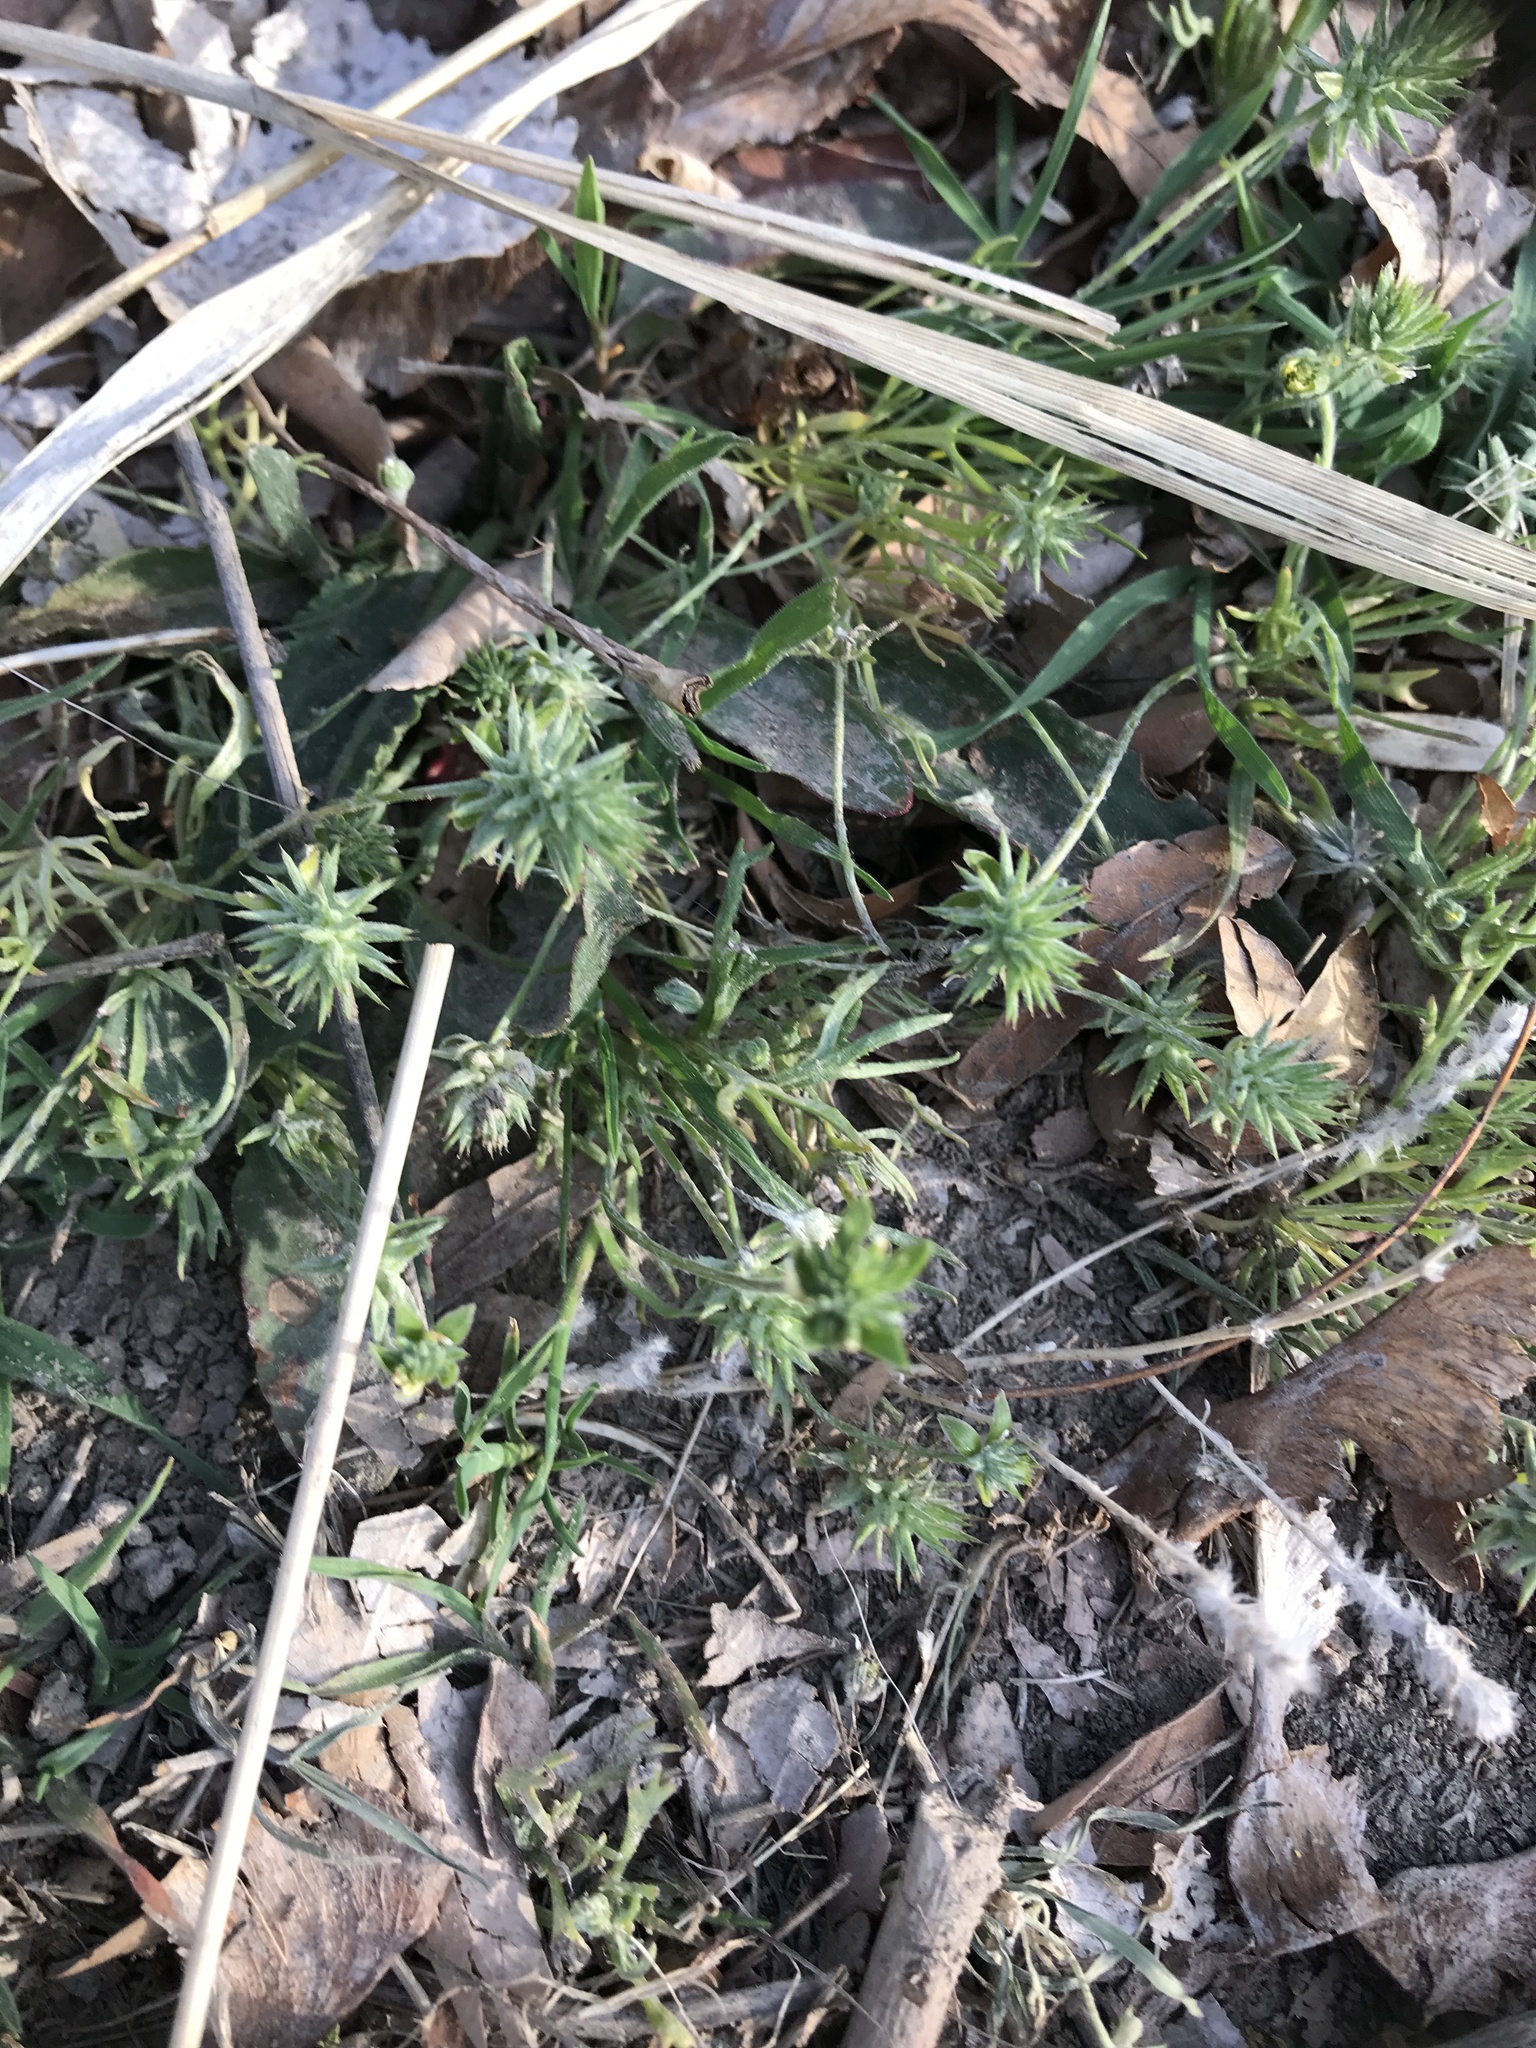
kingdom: Plantae
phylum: Tracheophyta
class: Magnoliopsida
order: Ranunculales
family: Ranunculaceae
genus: Ceratocephala
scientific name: Ceratocephala orthoceras
